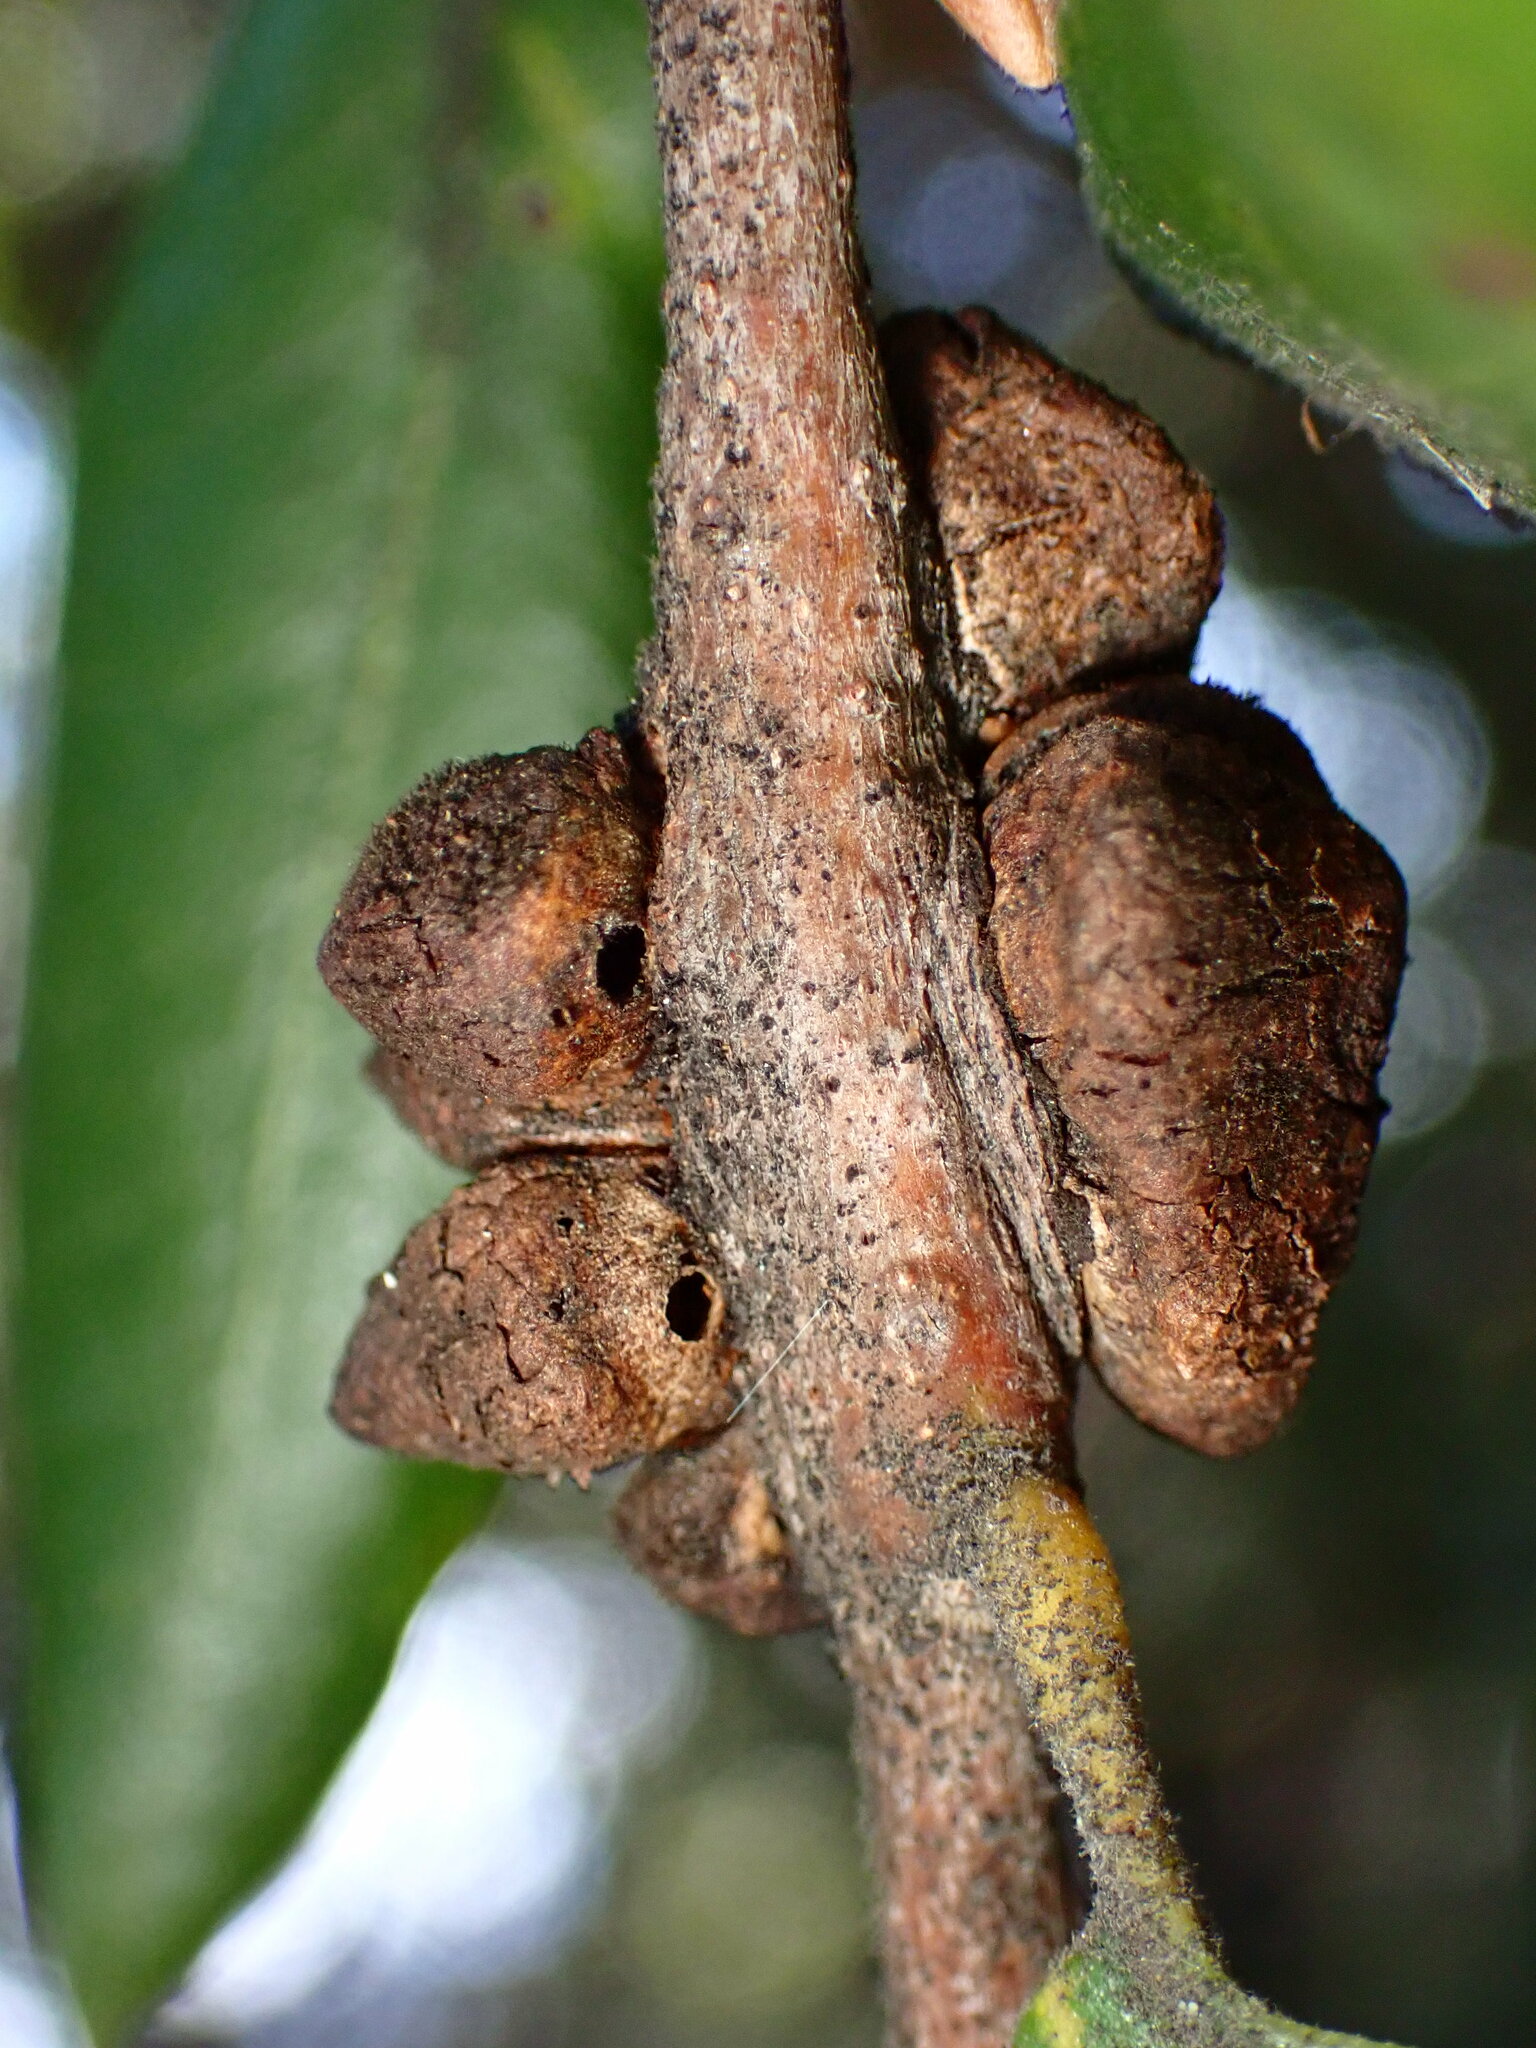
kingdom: Animalia
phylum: Arthropoda
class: Insecta
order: Hymenoptera
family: Cynipidae
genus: Disholandricus
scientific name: Disholandricus
